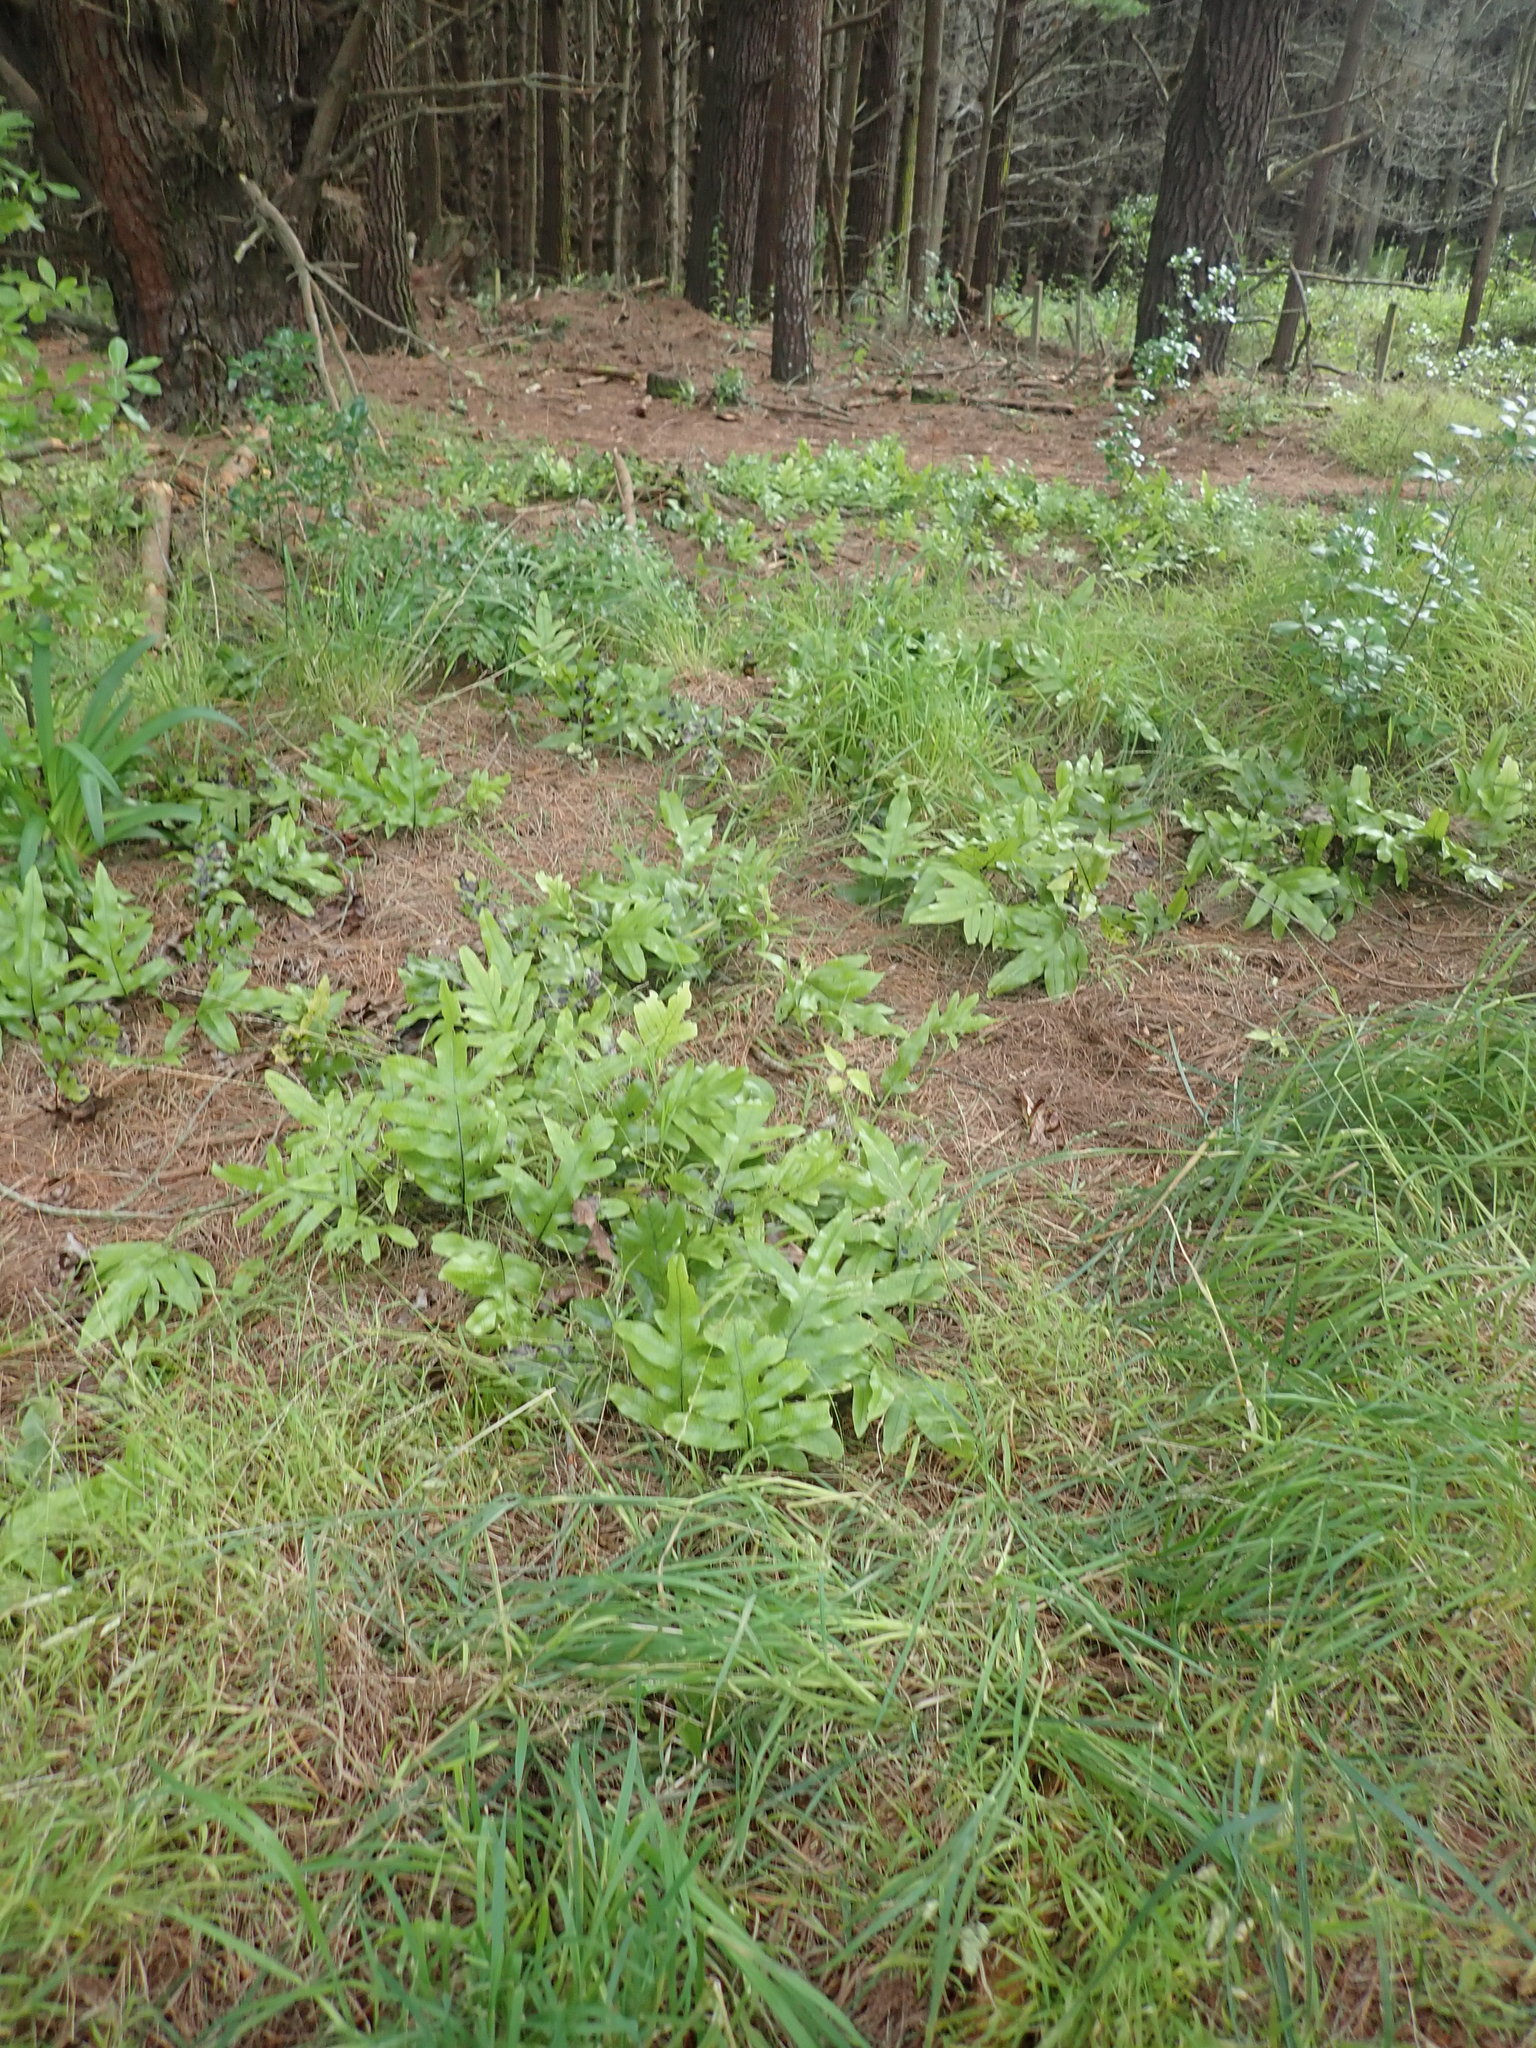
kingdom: Plantae
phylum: Tracheophyta
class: Polypodiopsida
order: Polypodiales
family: Polypodiaceae
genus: Lecanopteris
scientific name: Lecanopteris pustulata
